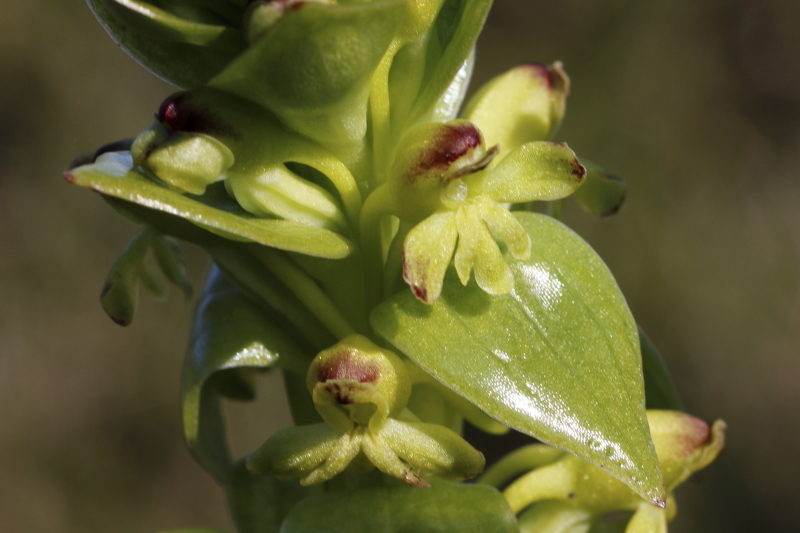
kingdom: Plantae
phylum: Tracheophyta
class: Liliopsida
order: Asparagales
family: Orchidaceae
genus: Satyrium
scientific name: Satyrium odorum
